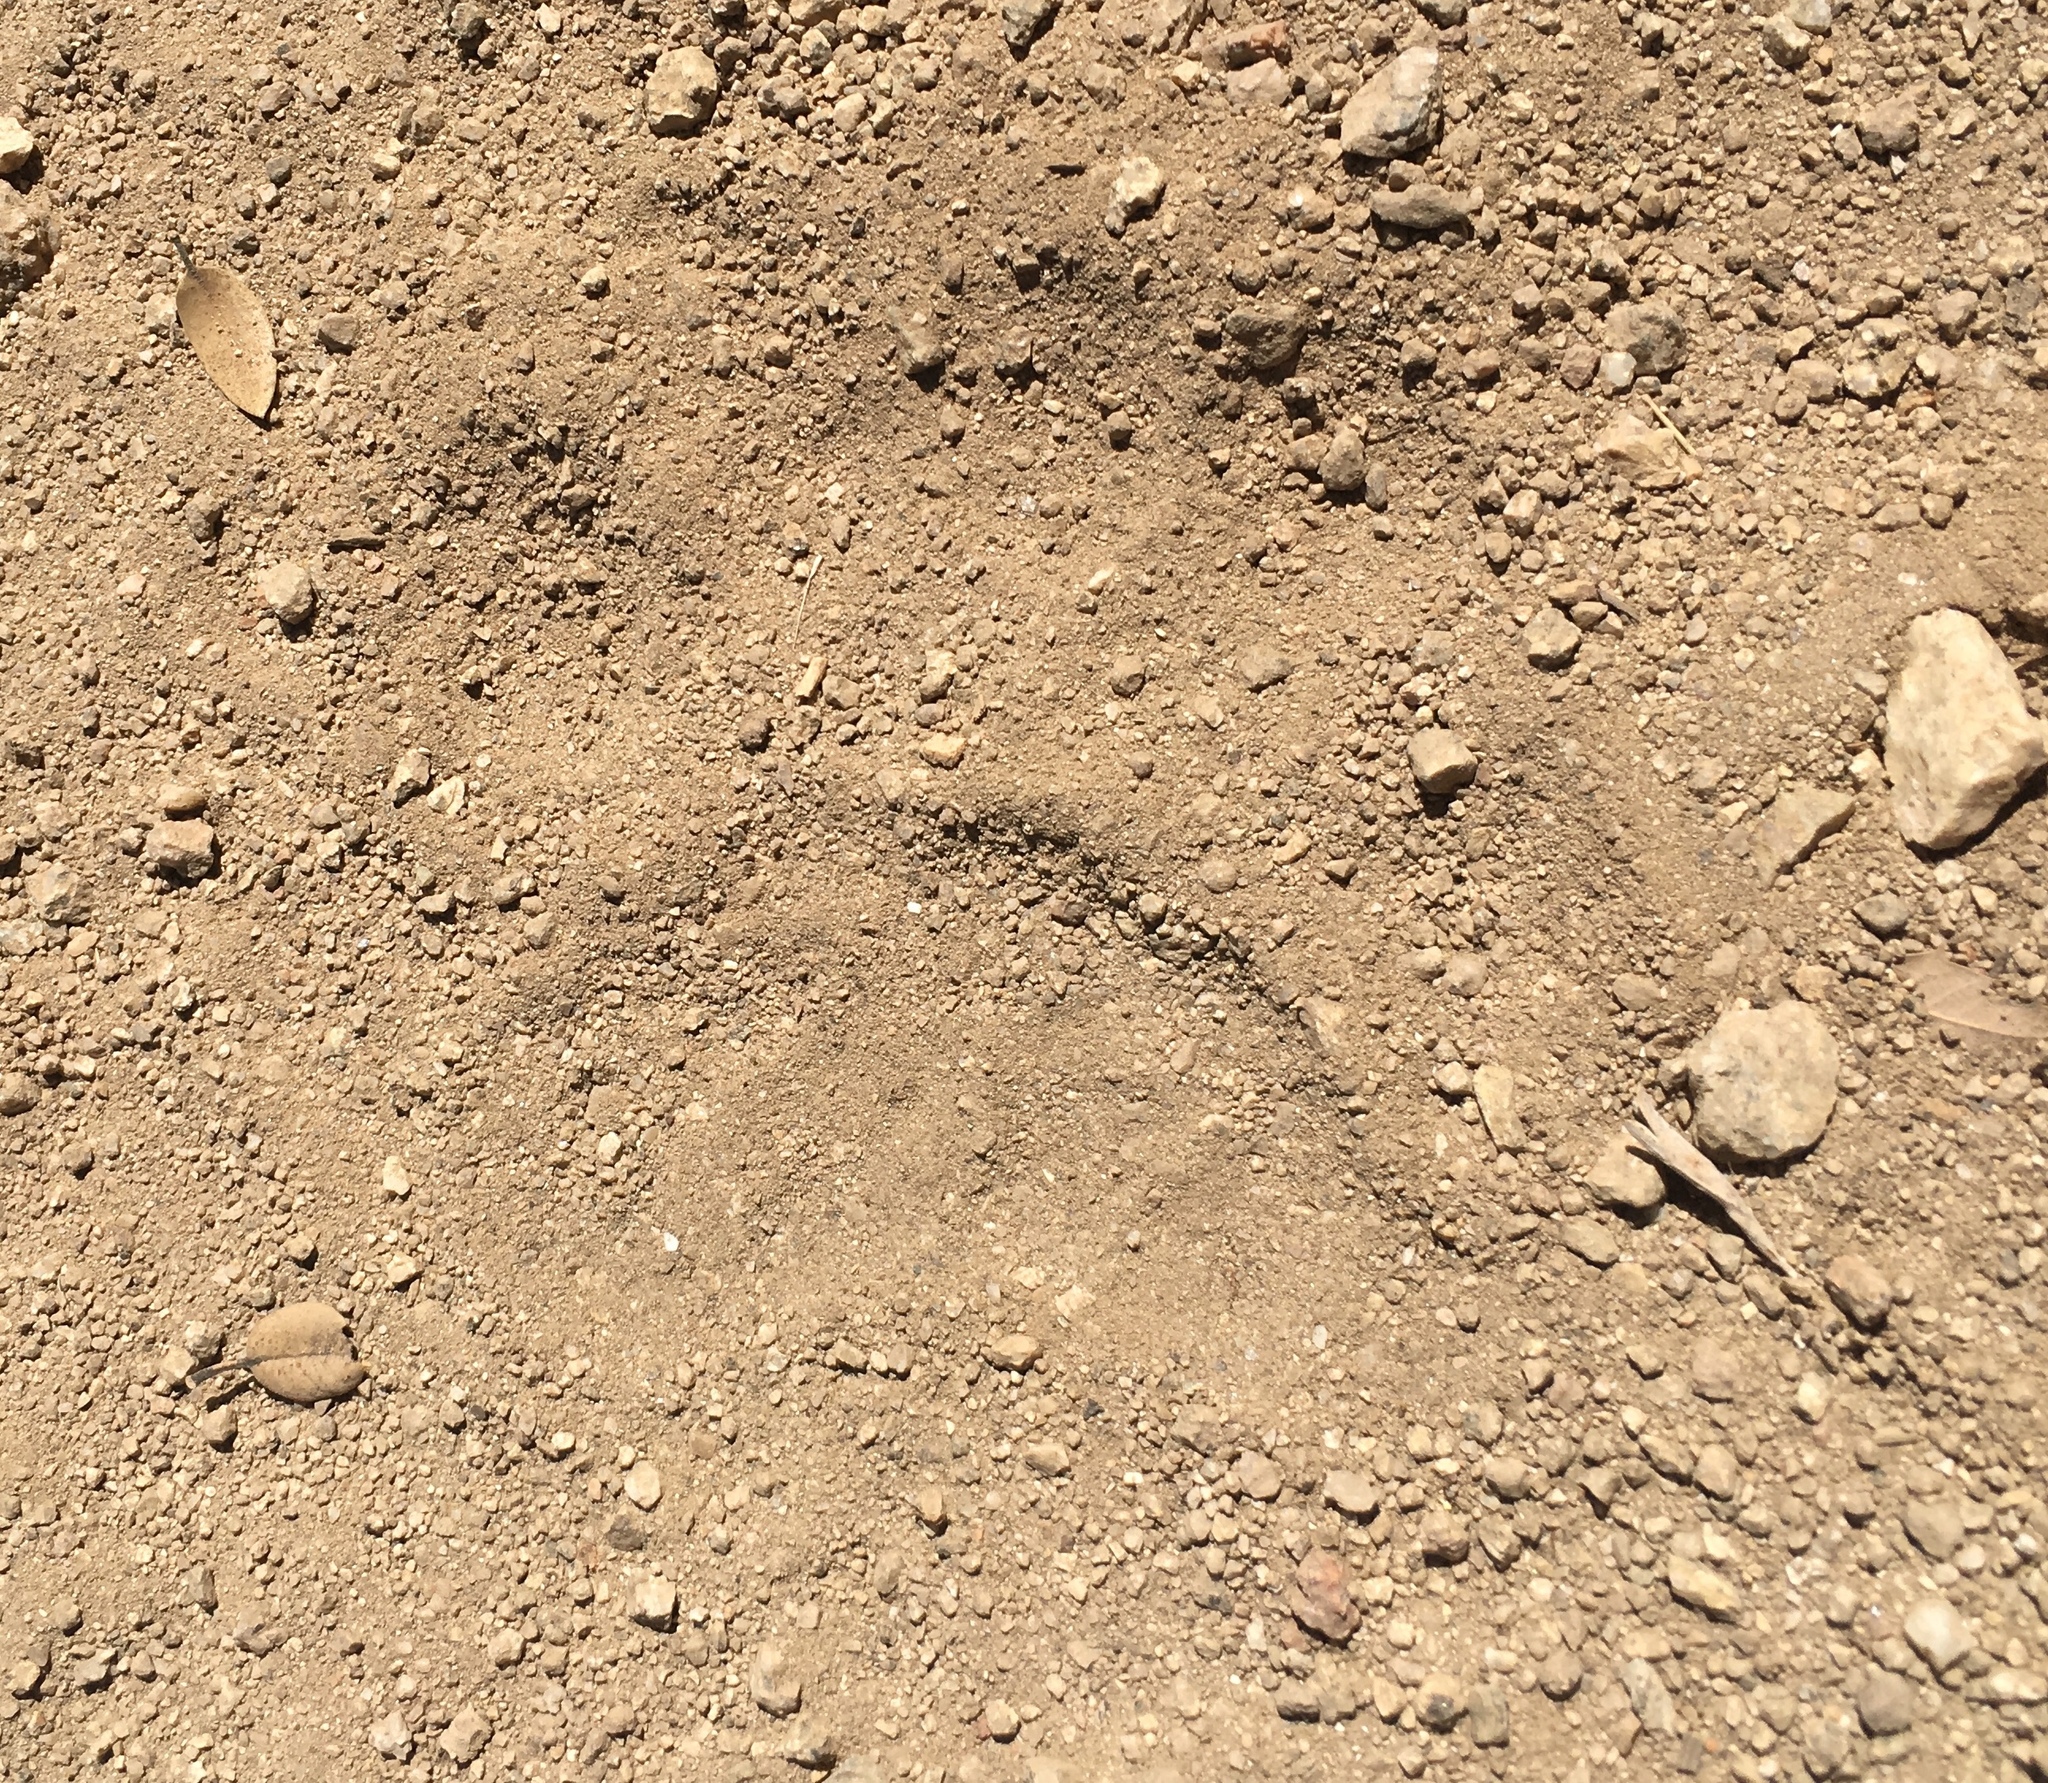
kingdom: Animalia
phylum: Chordata
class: Mammalia
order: Carnivora
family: Ursidae
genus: Ursus
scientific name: Ursus americanus
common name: American black bear
